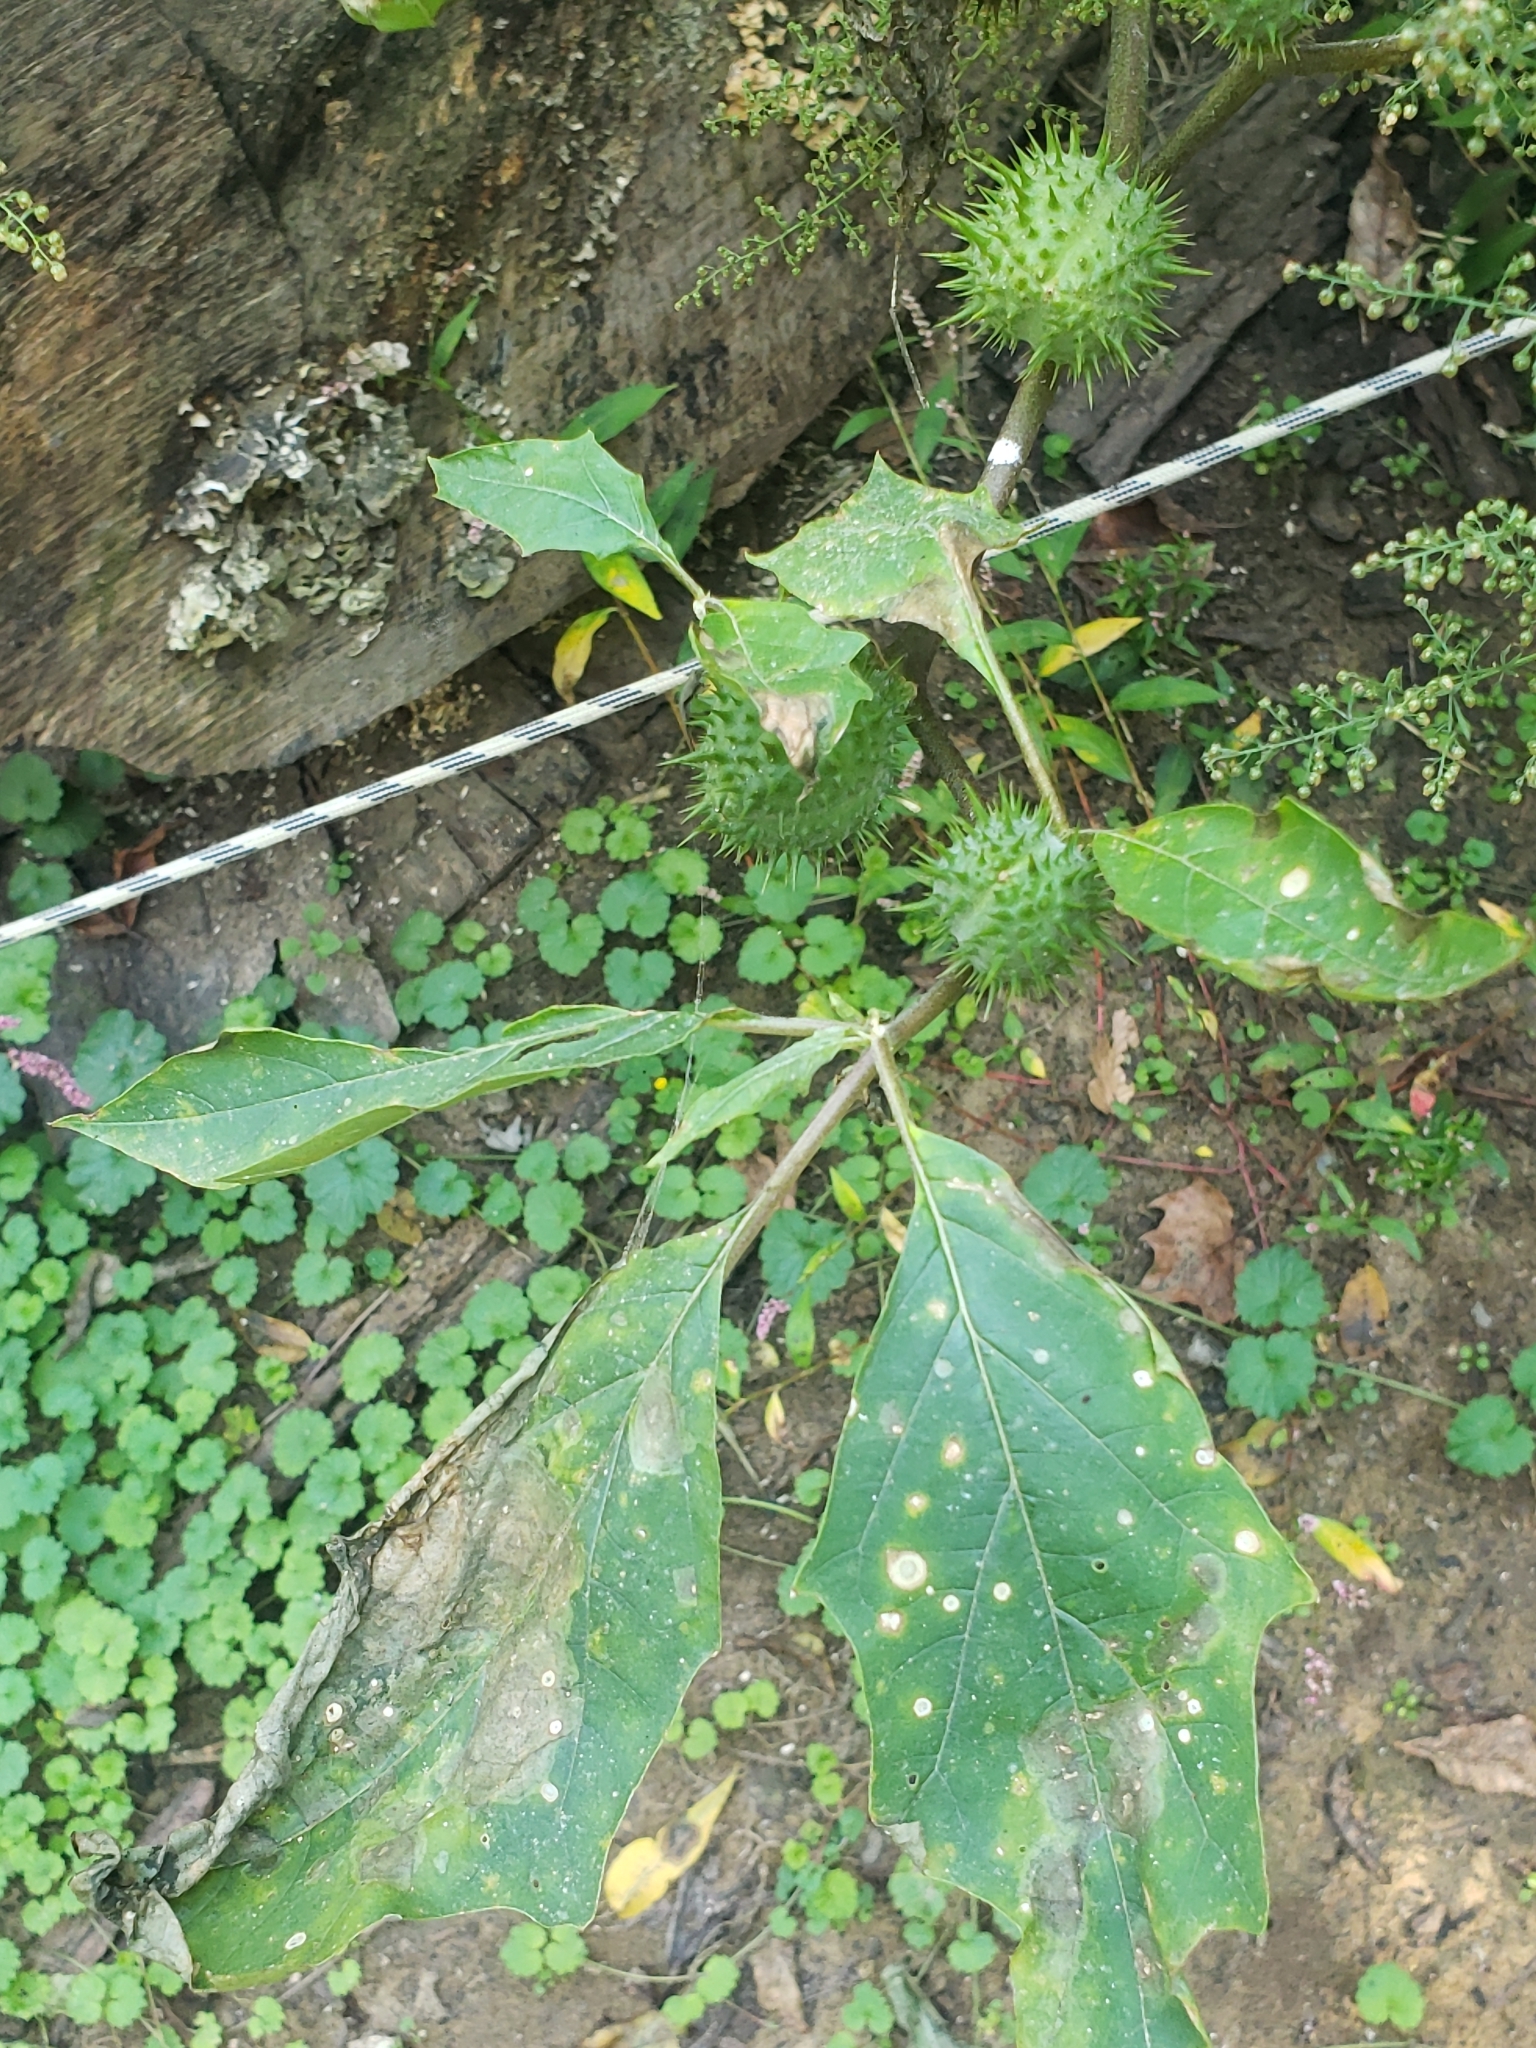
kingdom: Plantae
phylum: Tracheophyta
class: Magnoliopsida
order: Solanales
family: Solanaceae
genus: Datura
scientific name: Datura stramonium
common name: Thorn-apple
